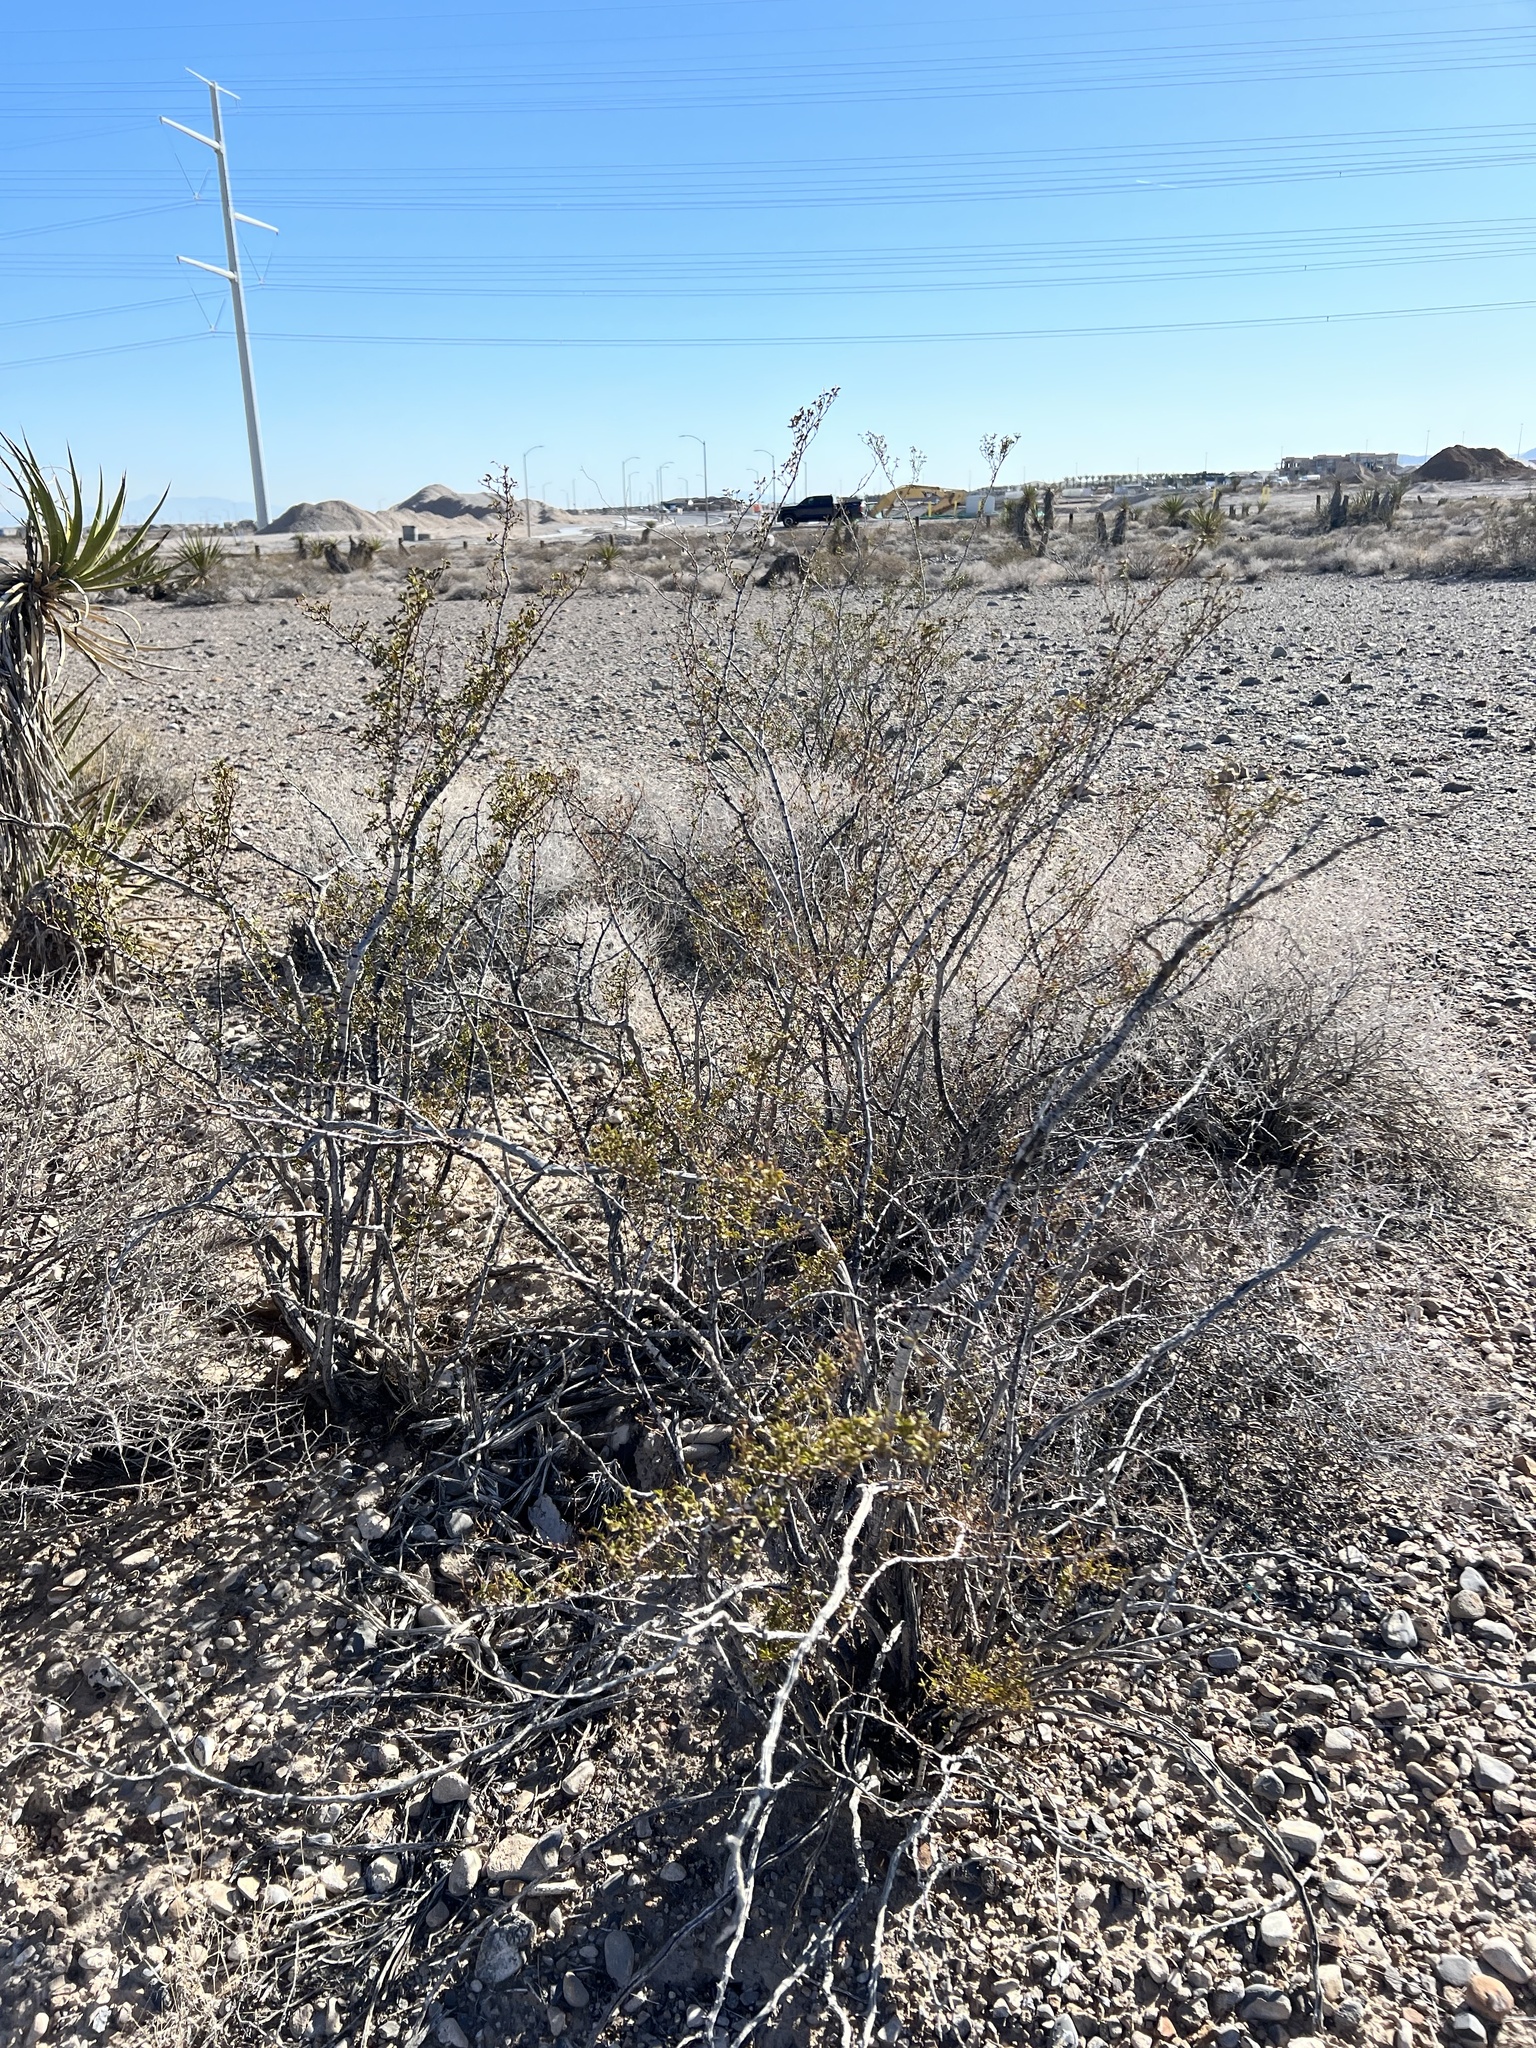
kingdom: Plantae
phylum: Tracheophyta
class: Magnoliopsida
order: Zygophyllales
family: Zygophyllaceae
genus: Larrea
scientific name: Larrea tridentata
